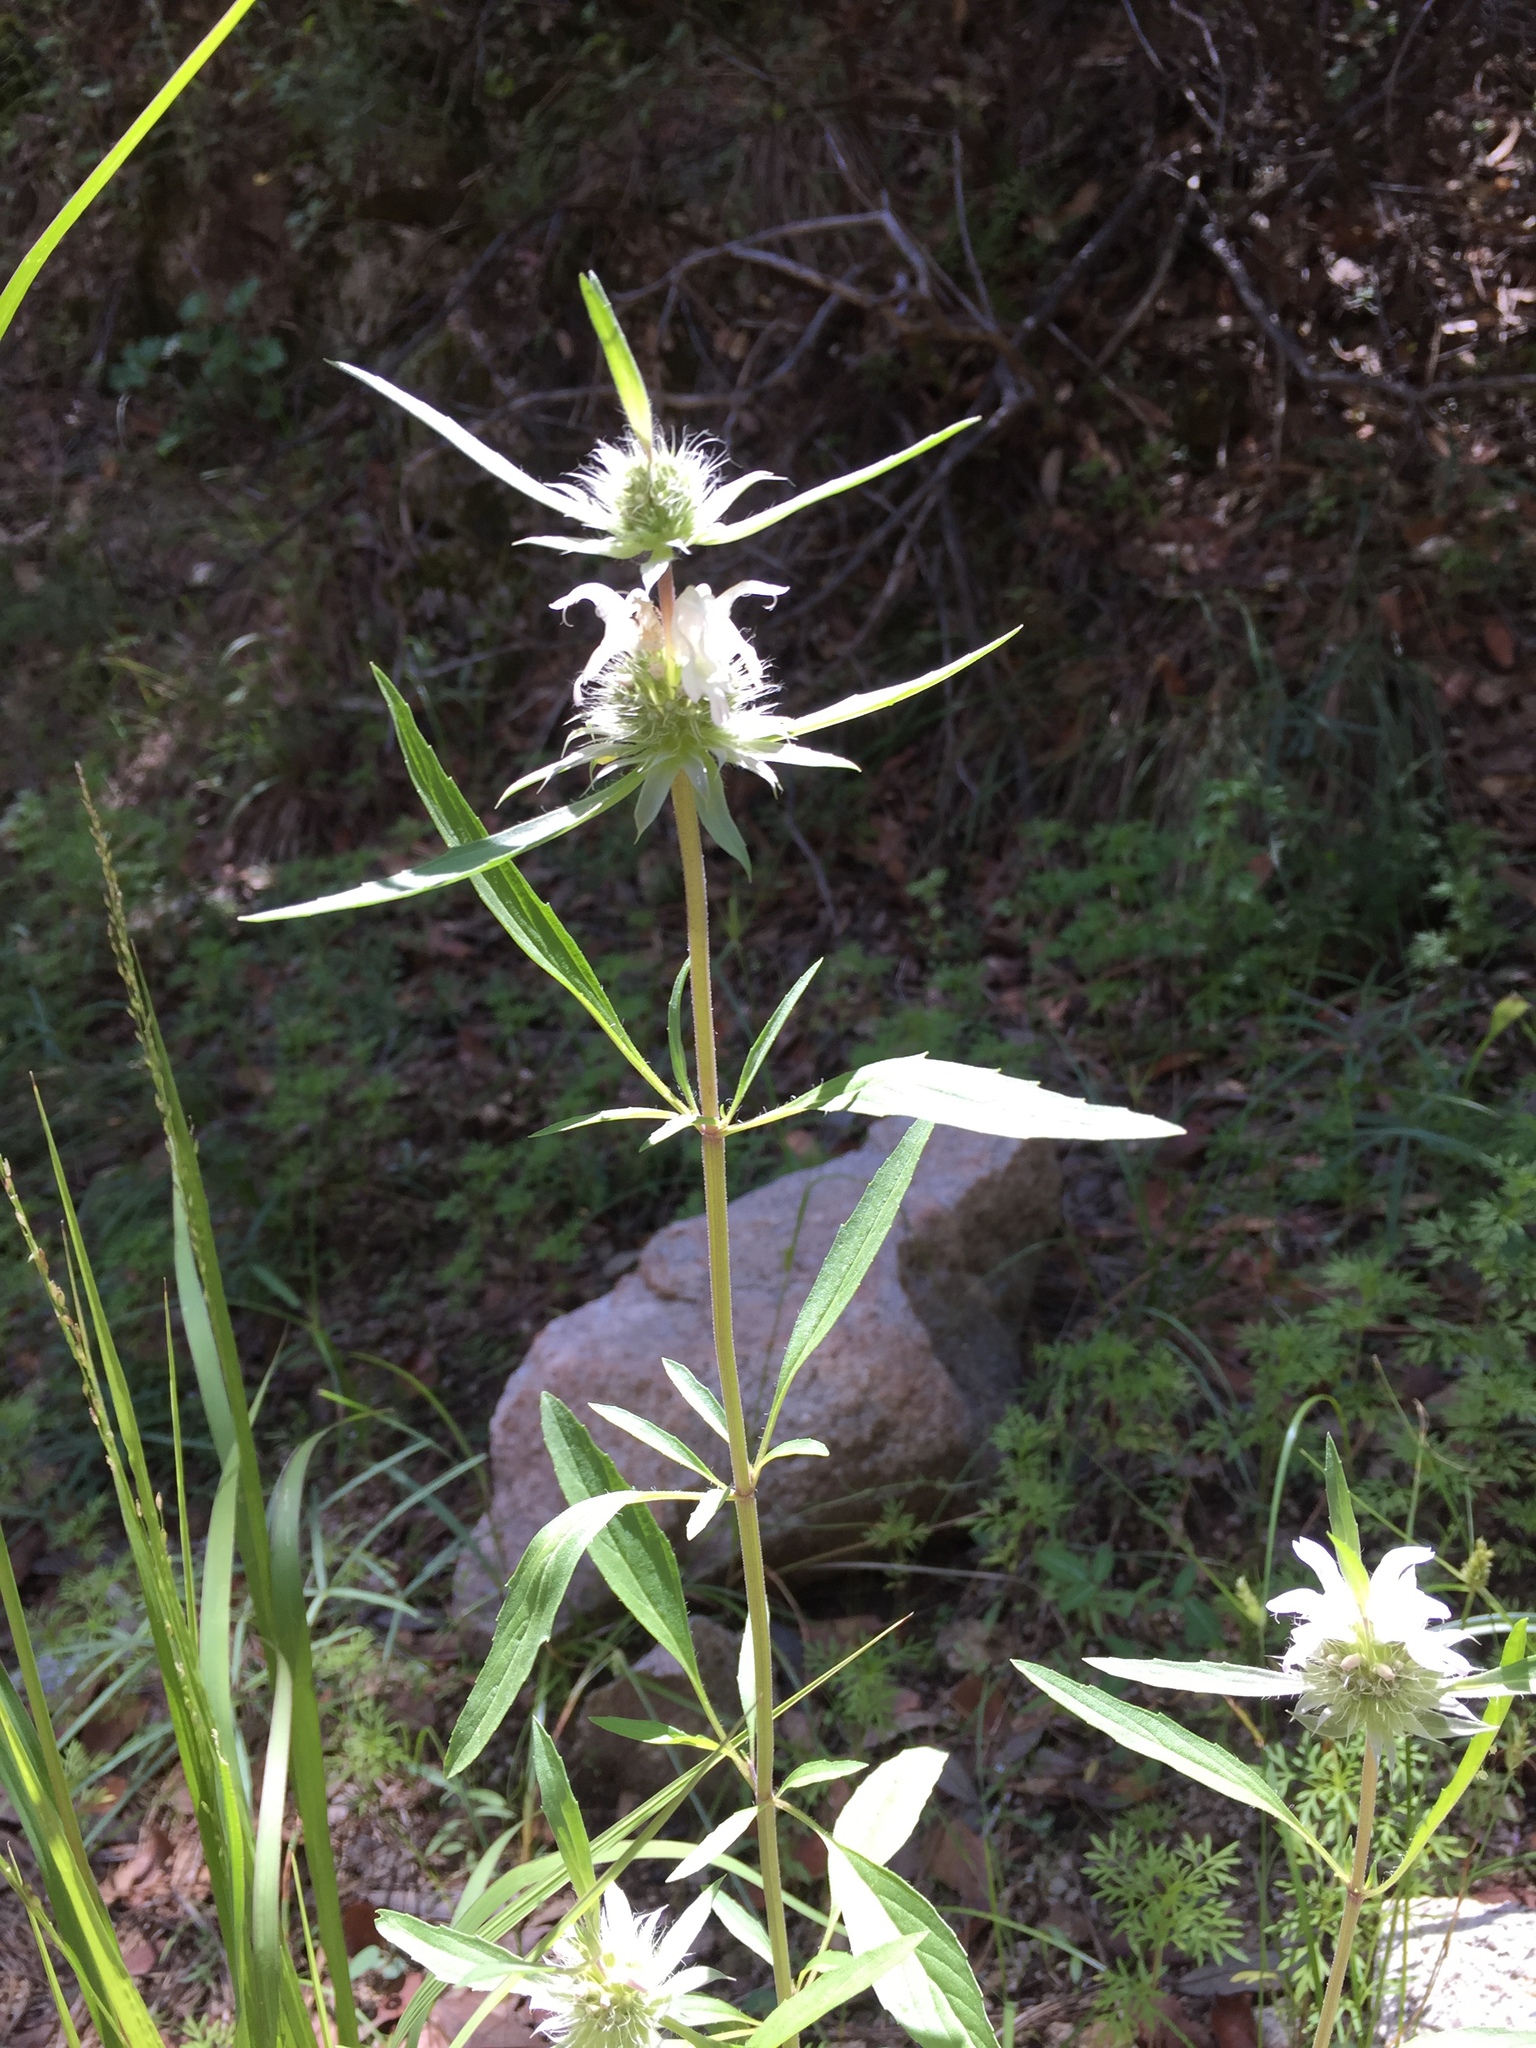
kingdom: Plantae
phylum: Tracheophyta
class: Magnoliopsida
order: Lamiales
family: Lamiaceae
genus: Monarda
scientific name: Monarda citriodora
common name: Lemon beebalm
